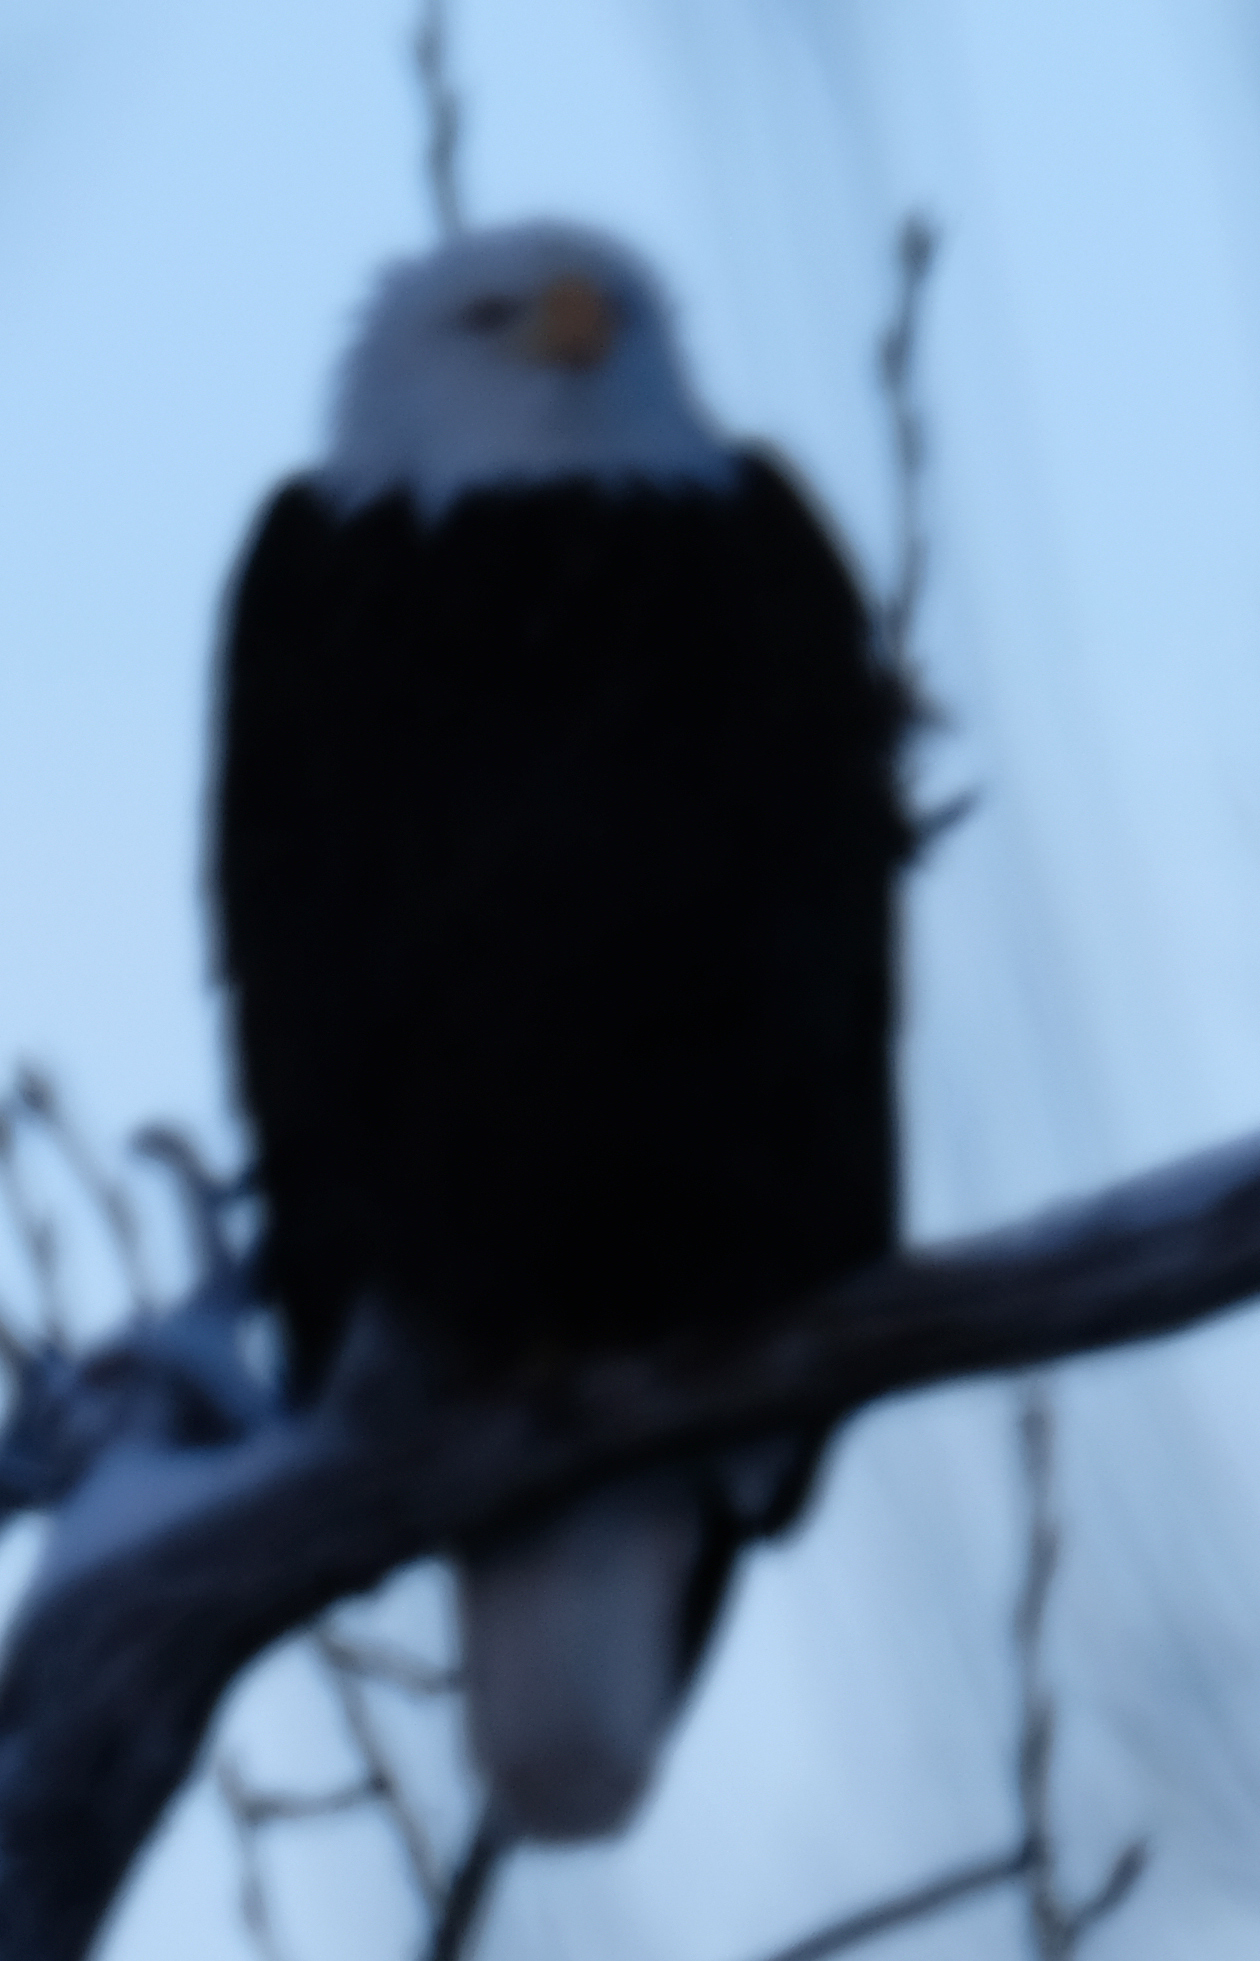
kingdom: Animalia
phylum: Chordata
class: Aves
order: Accipitriformes
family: Accipitridae
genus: Haliaeetus
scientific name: Haliaeetus leucocephalus
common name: Bald eagle
